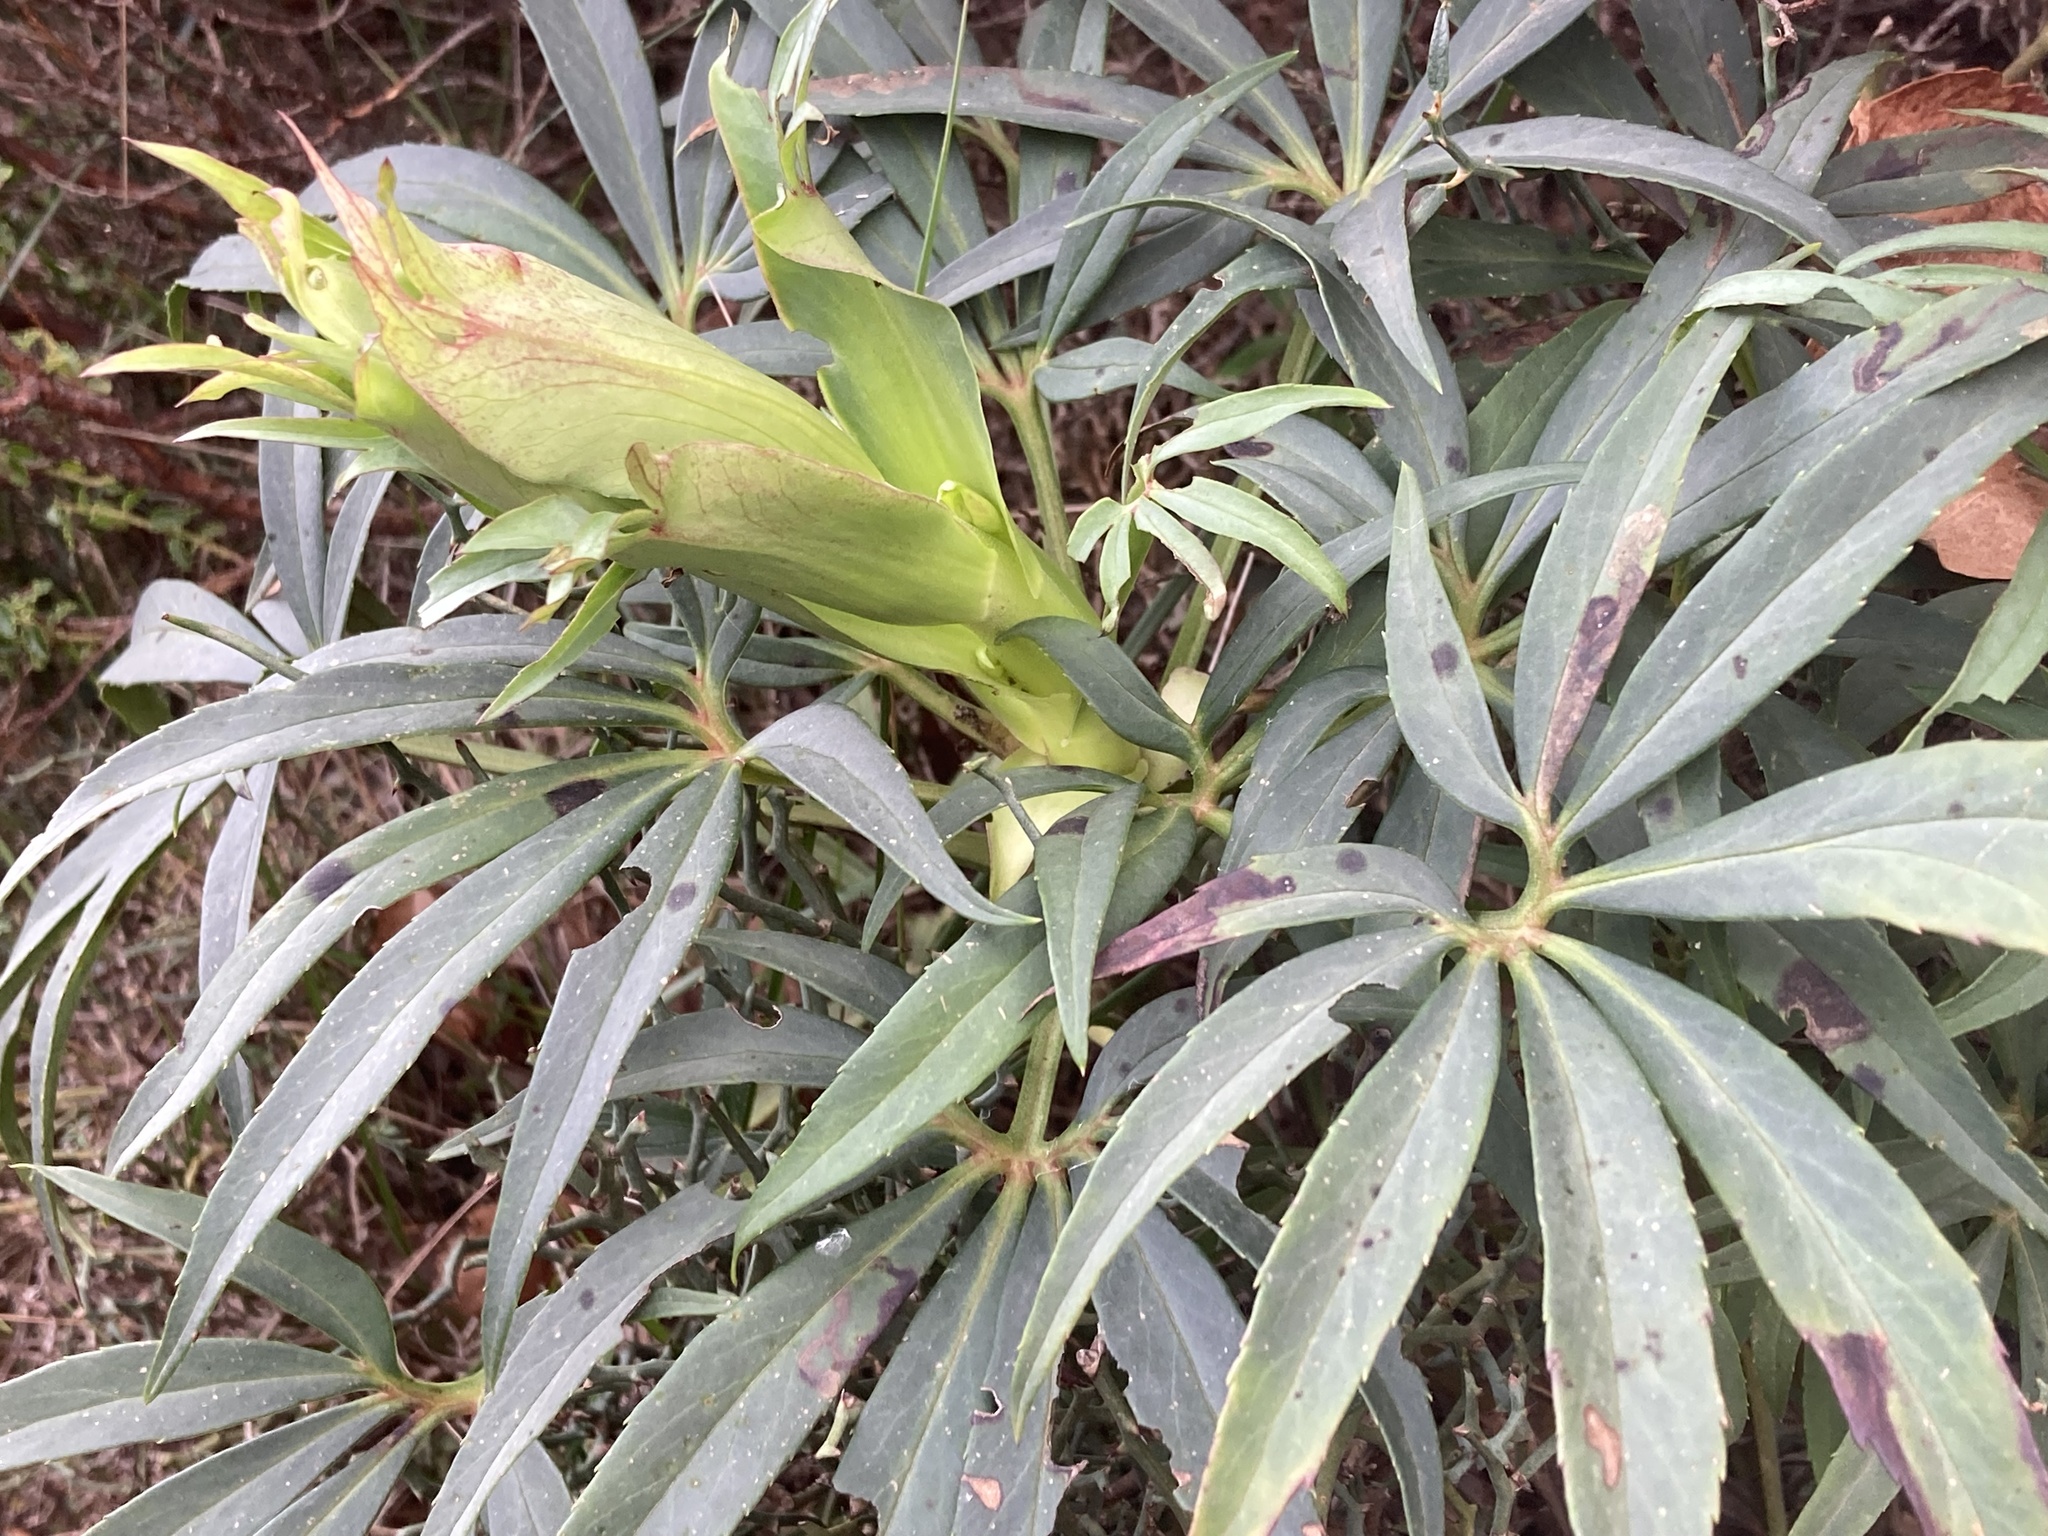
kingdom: Plantae
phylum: Tracheophyta
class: Magnoliopsida
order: Ranunculales
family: Ranunculaceae
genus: Helleborus
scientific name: Helleborus foetidus
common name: Stinking hellebore
